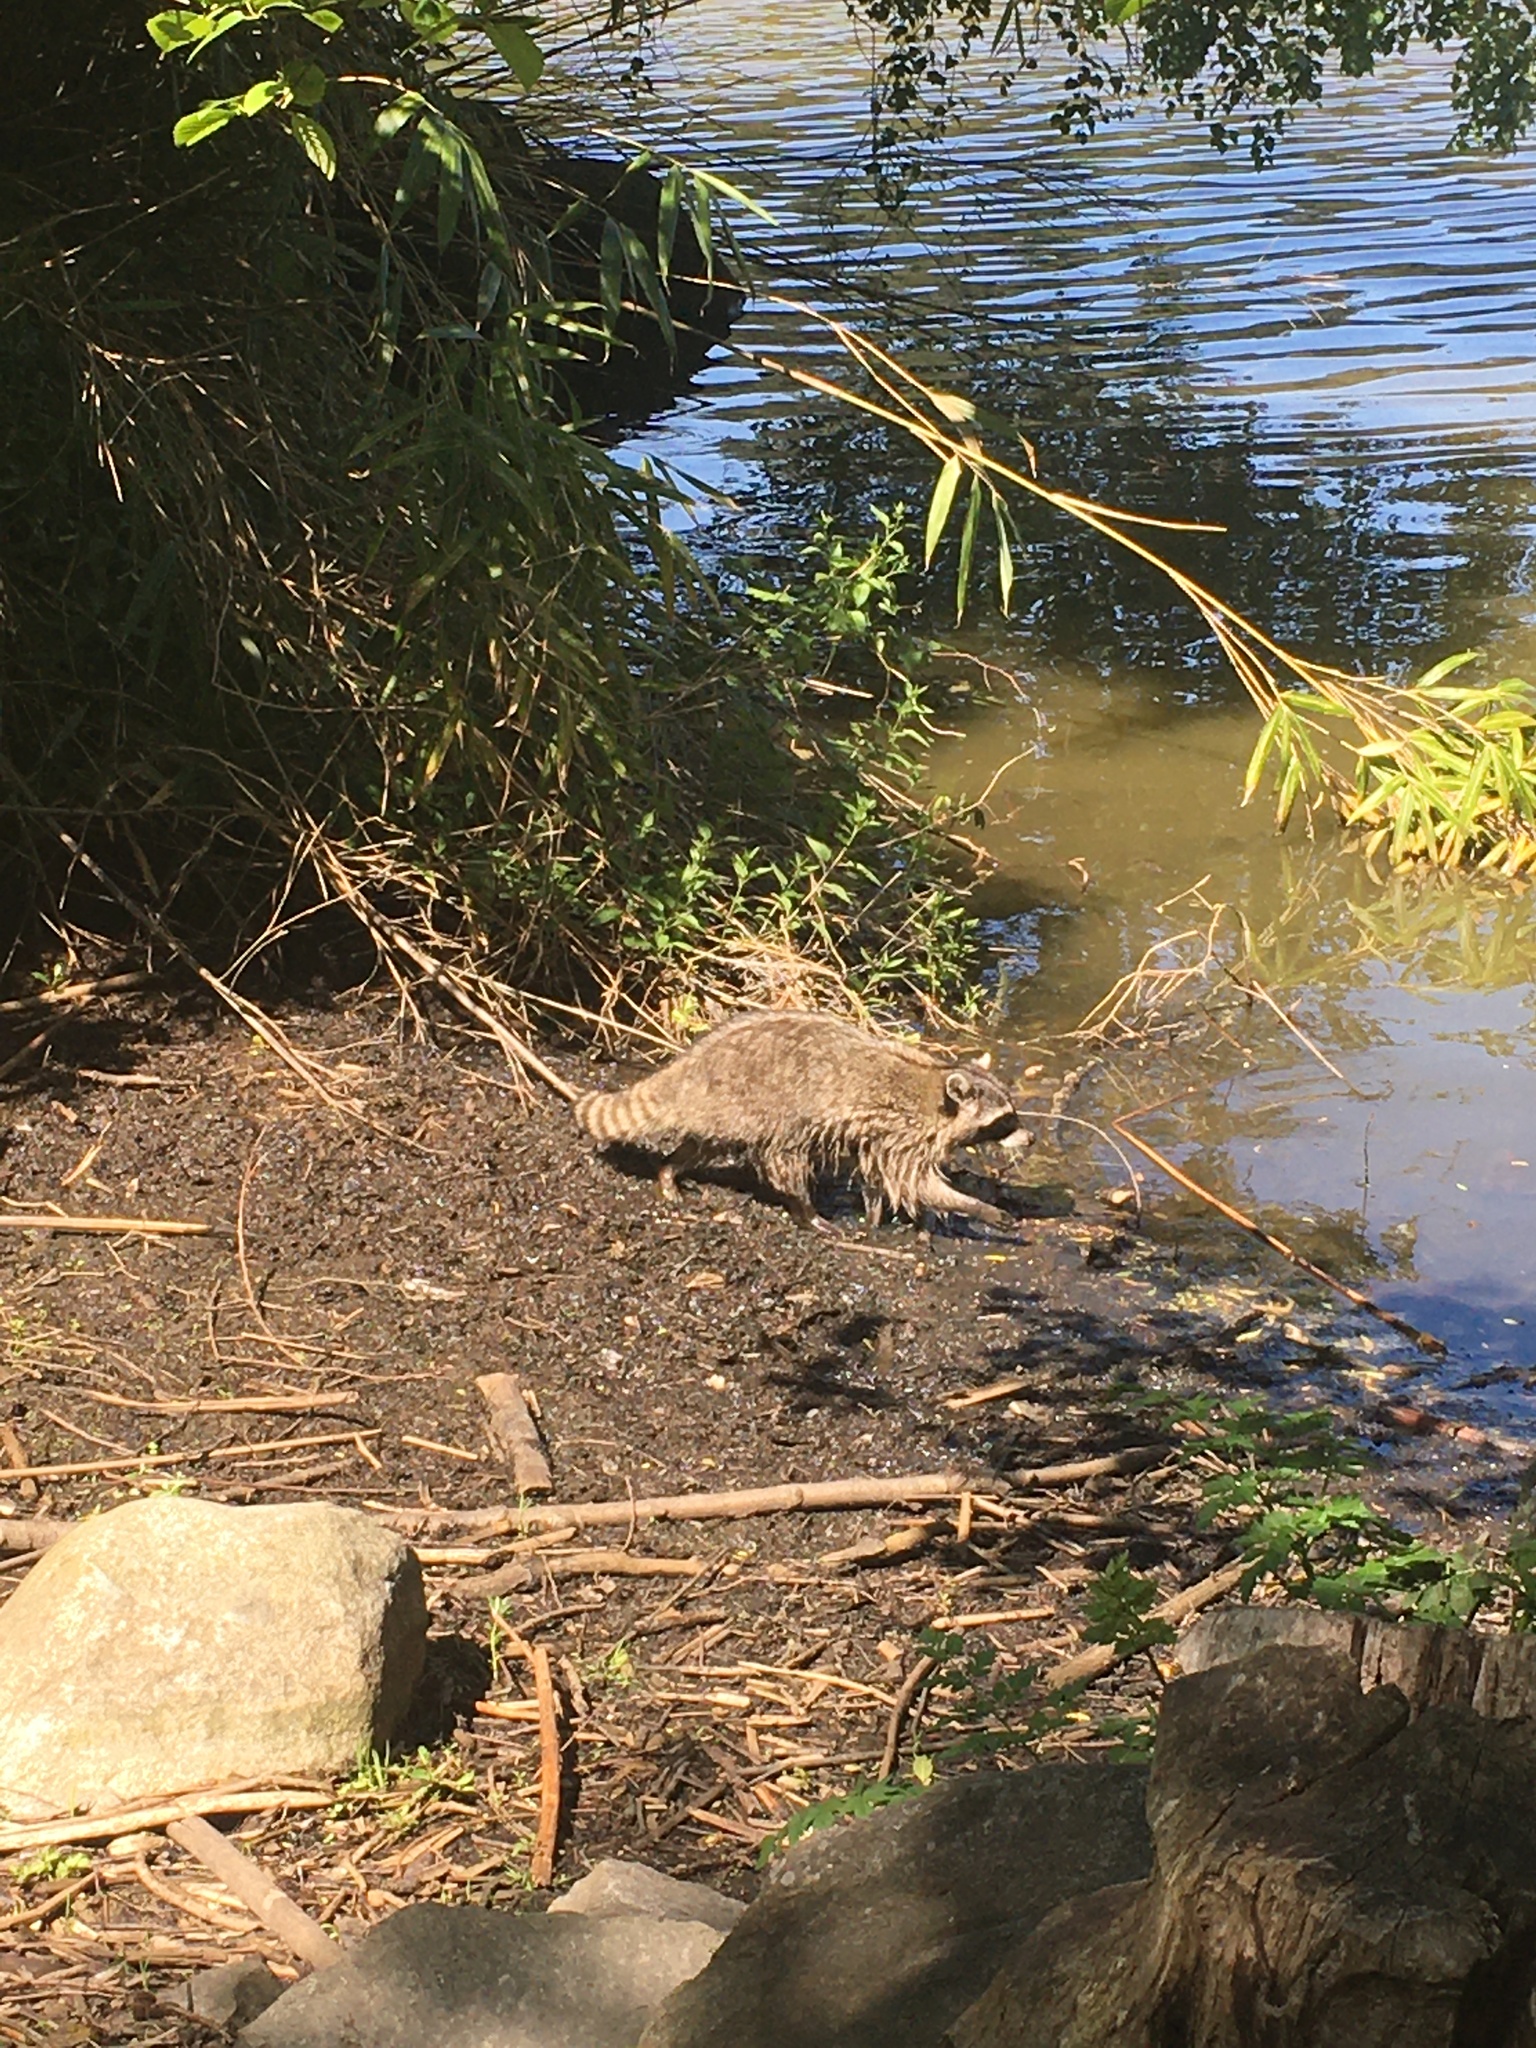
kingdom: Animalia
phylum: Chordata
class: Mammalia
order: Carnivora
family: Procyonidae
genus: Procyon
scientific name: Procyon lotor
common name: Raccoon
